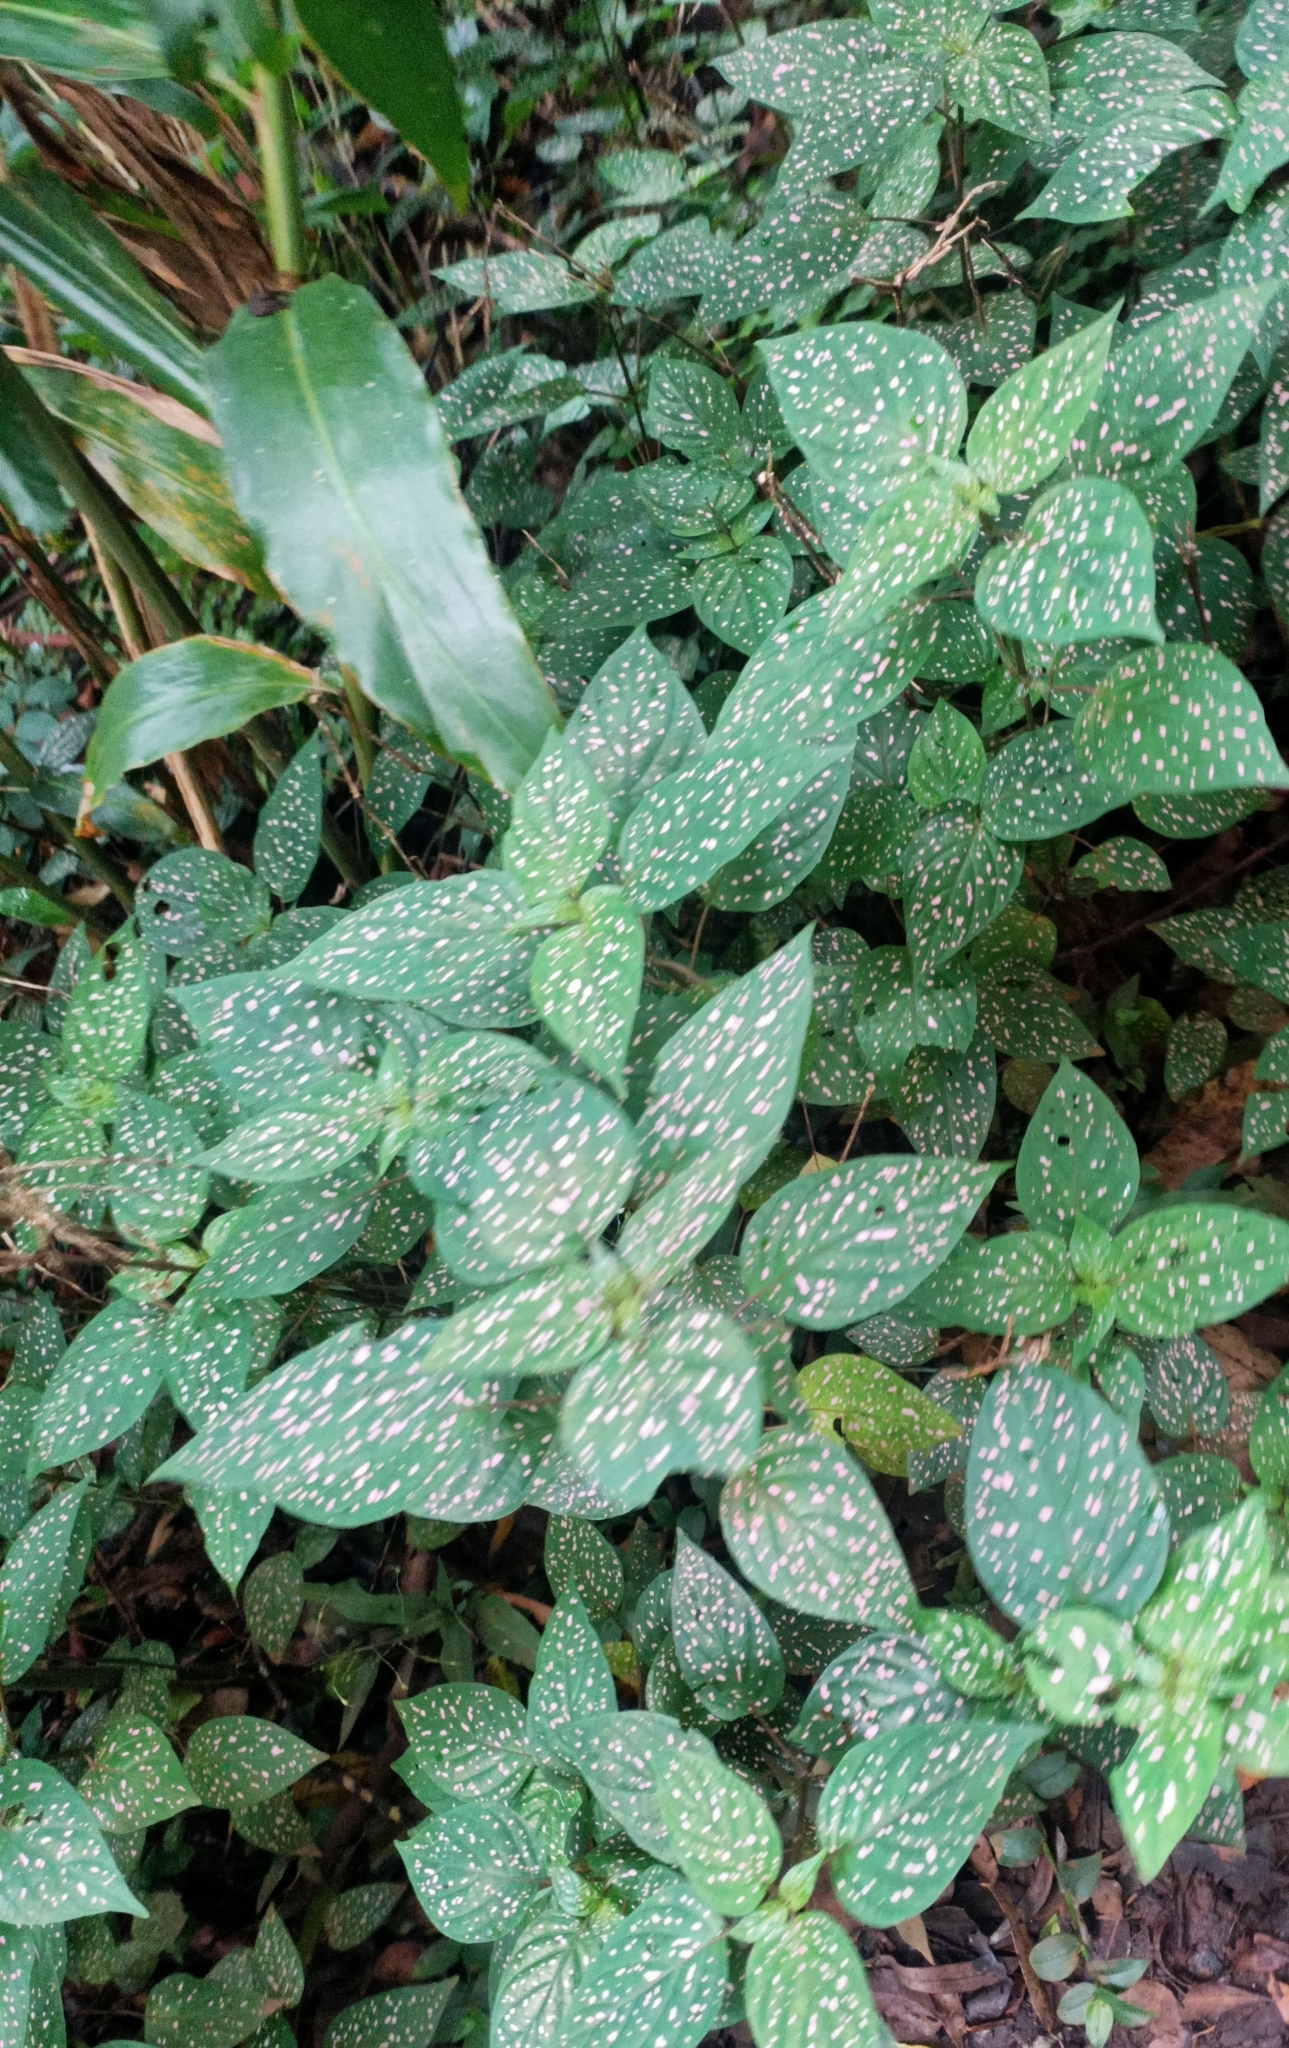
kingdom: Plantae
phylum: Tracheophyta
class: Magnoliopsida
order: Lamiales
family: Acanthaceae
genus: Hypoestes
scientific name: Hypoestes phyllostachya
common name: Polkadot-plant
